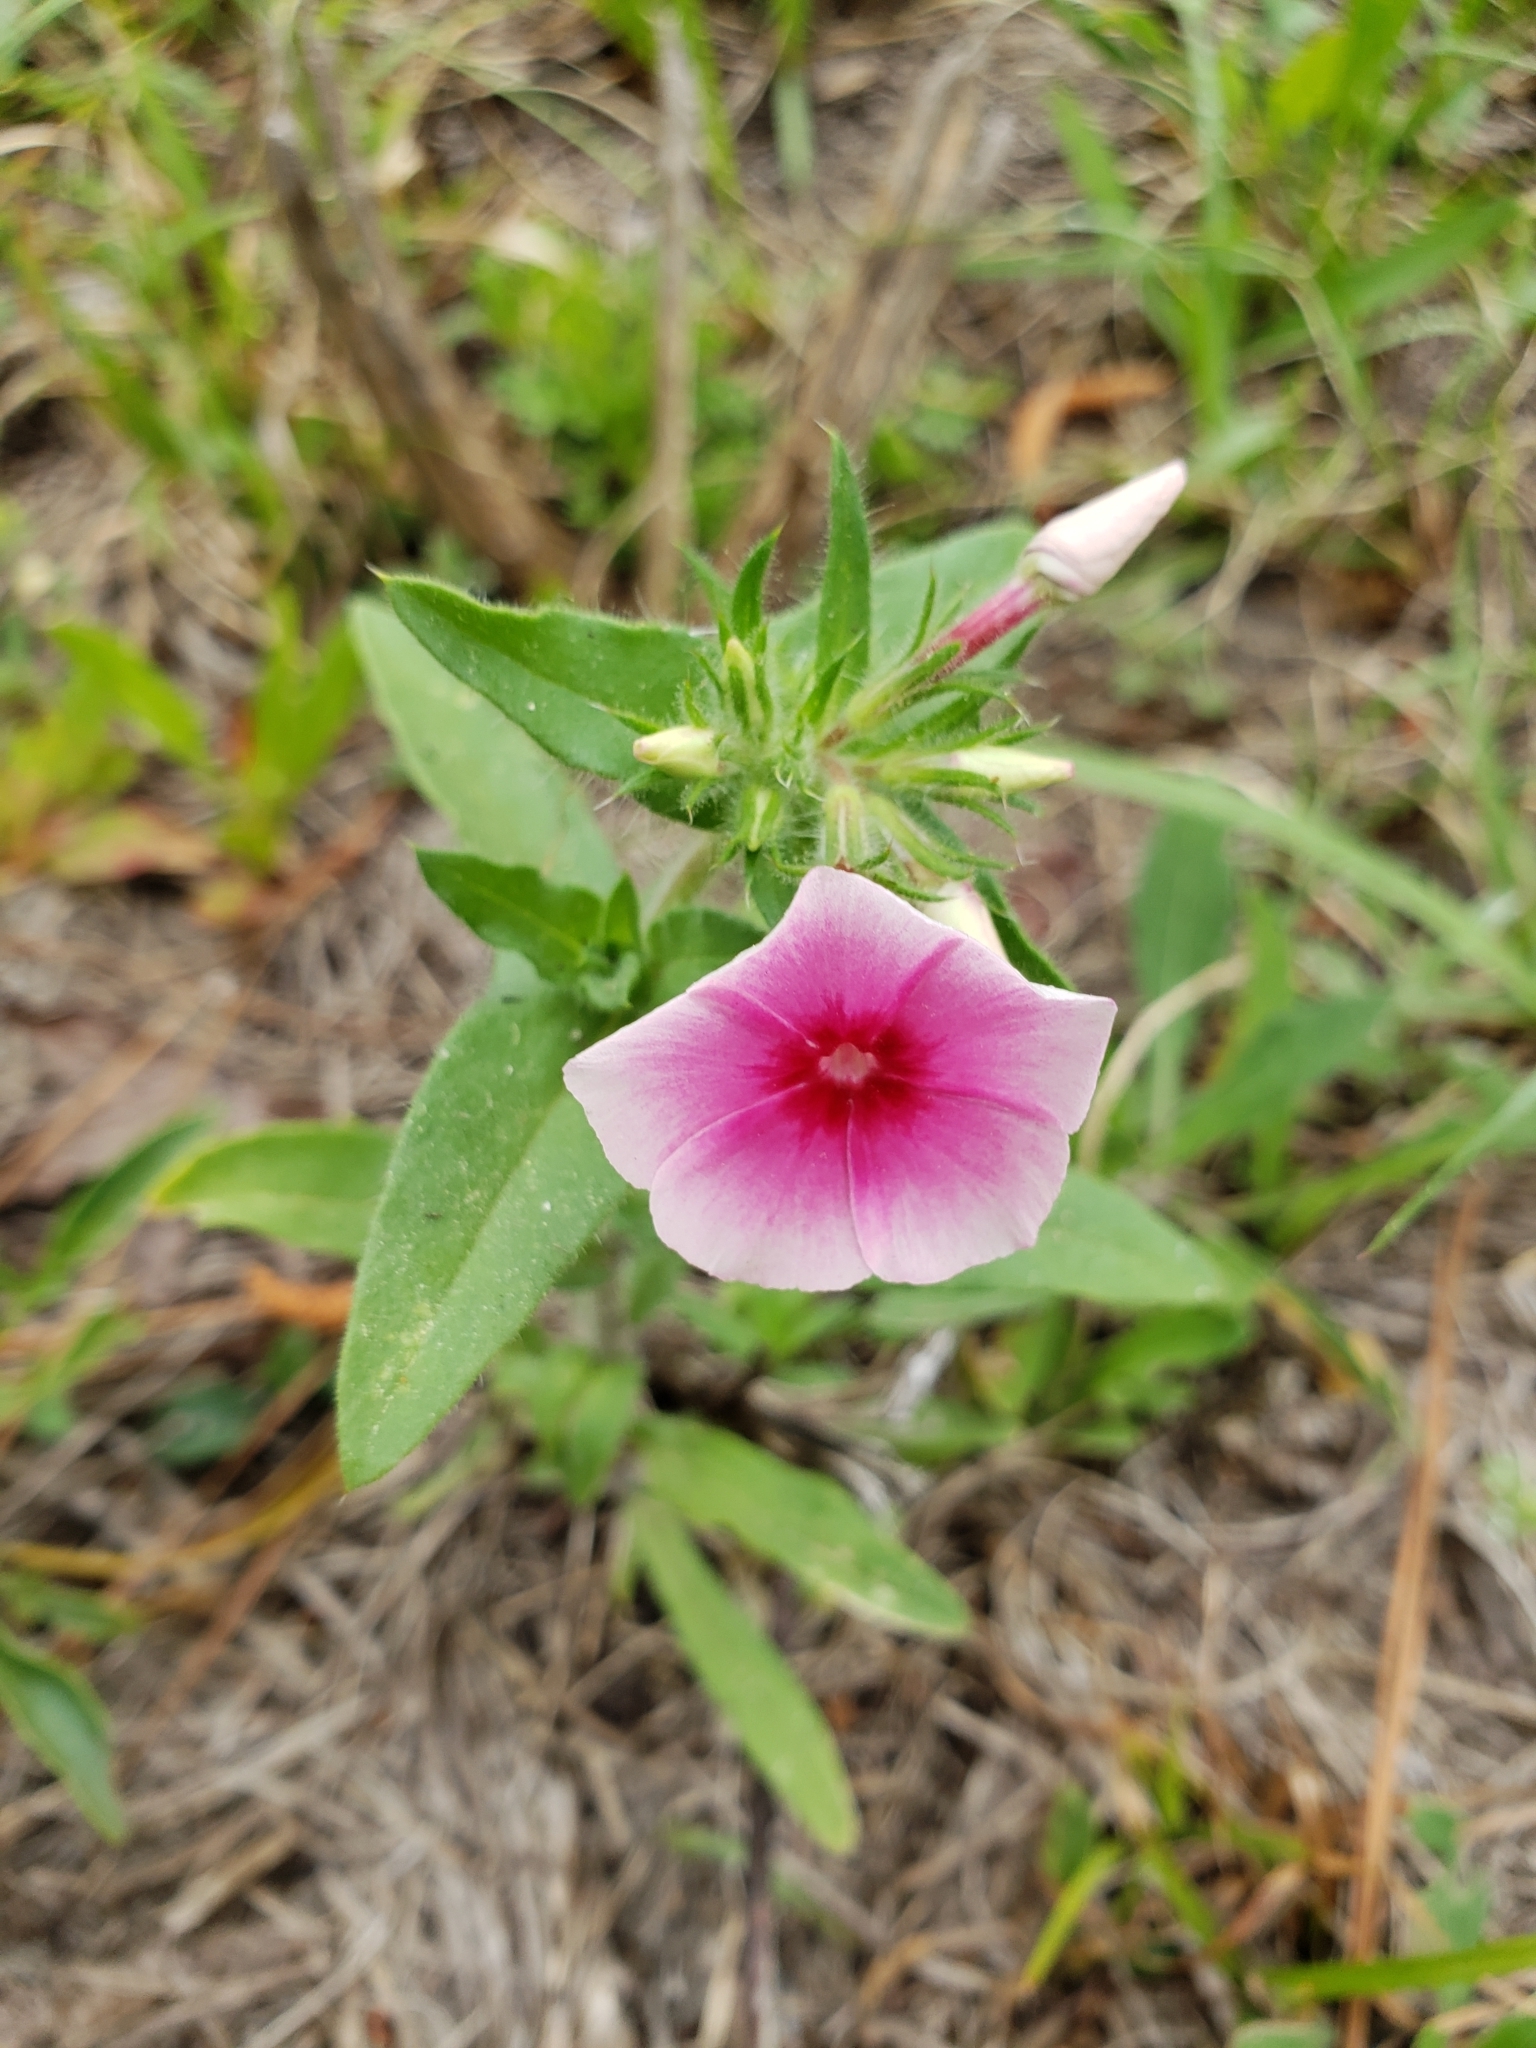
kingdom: Plantae
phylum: Tracheophyta
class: Magnoliopsida
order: Ericales
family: Polemoniaceae
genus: Phlox
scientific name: Phlox drummondii
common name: Drummond's phlox
